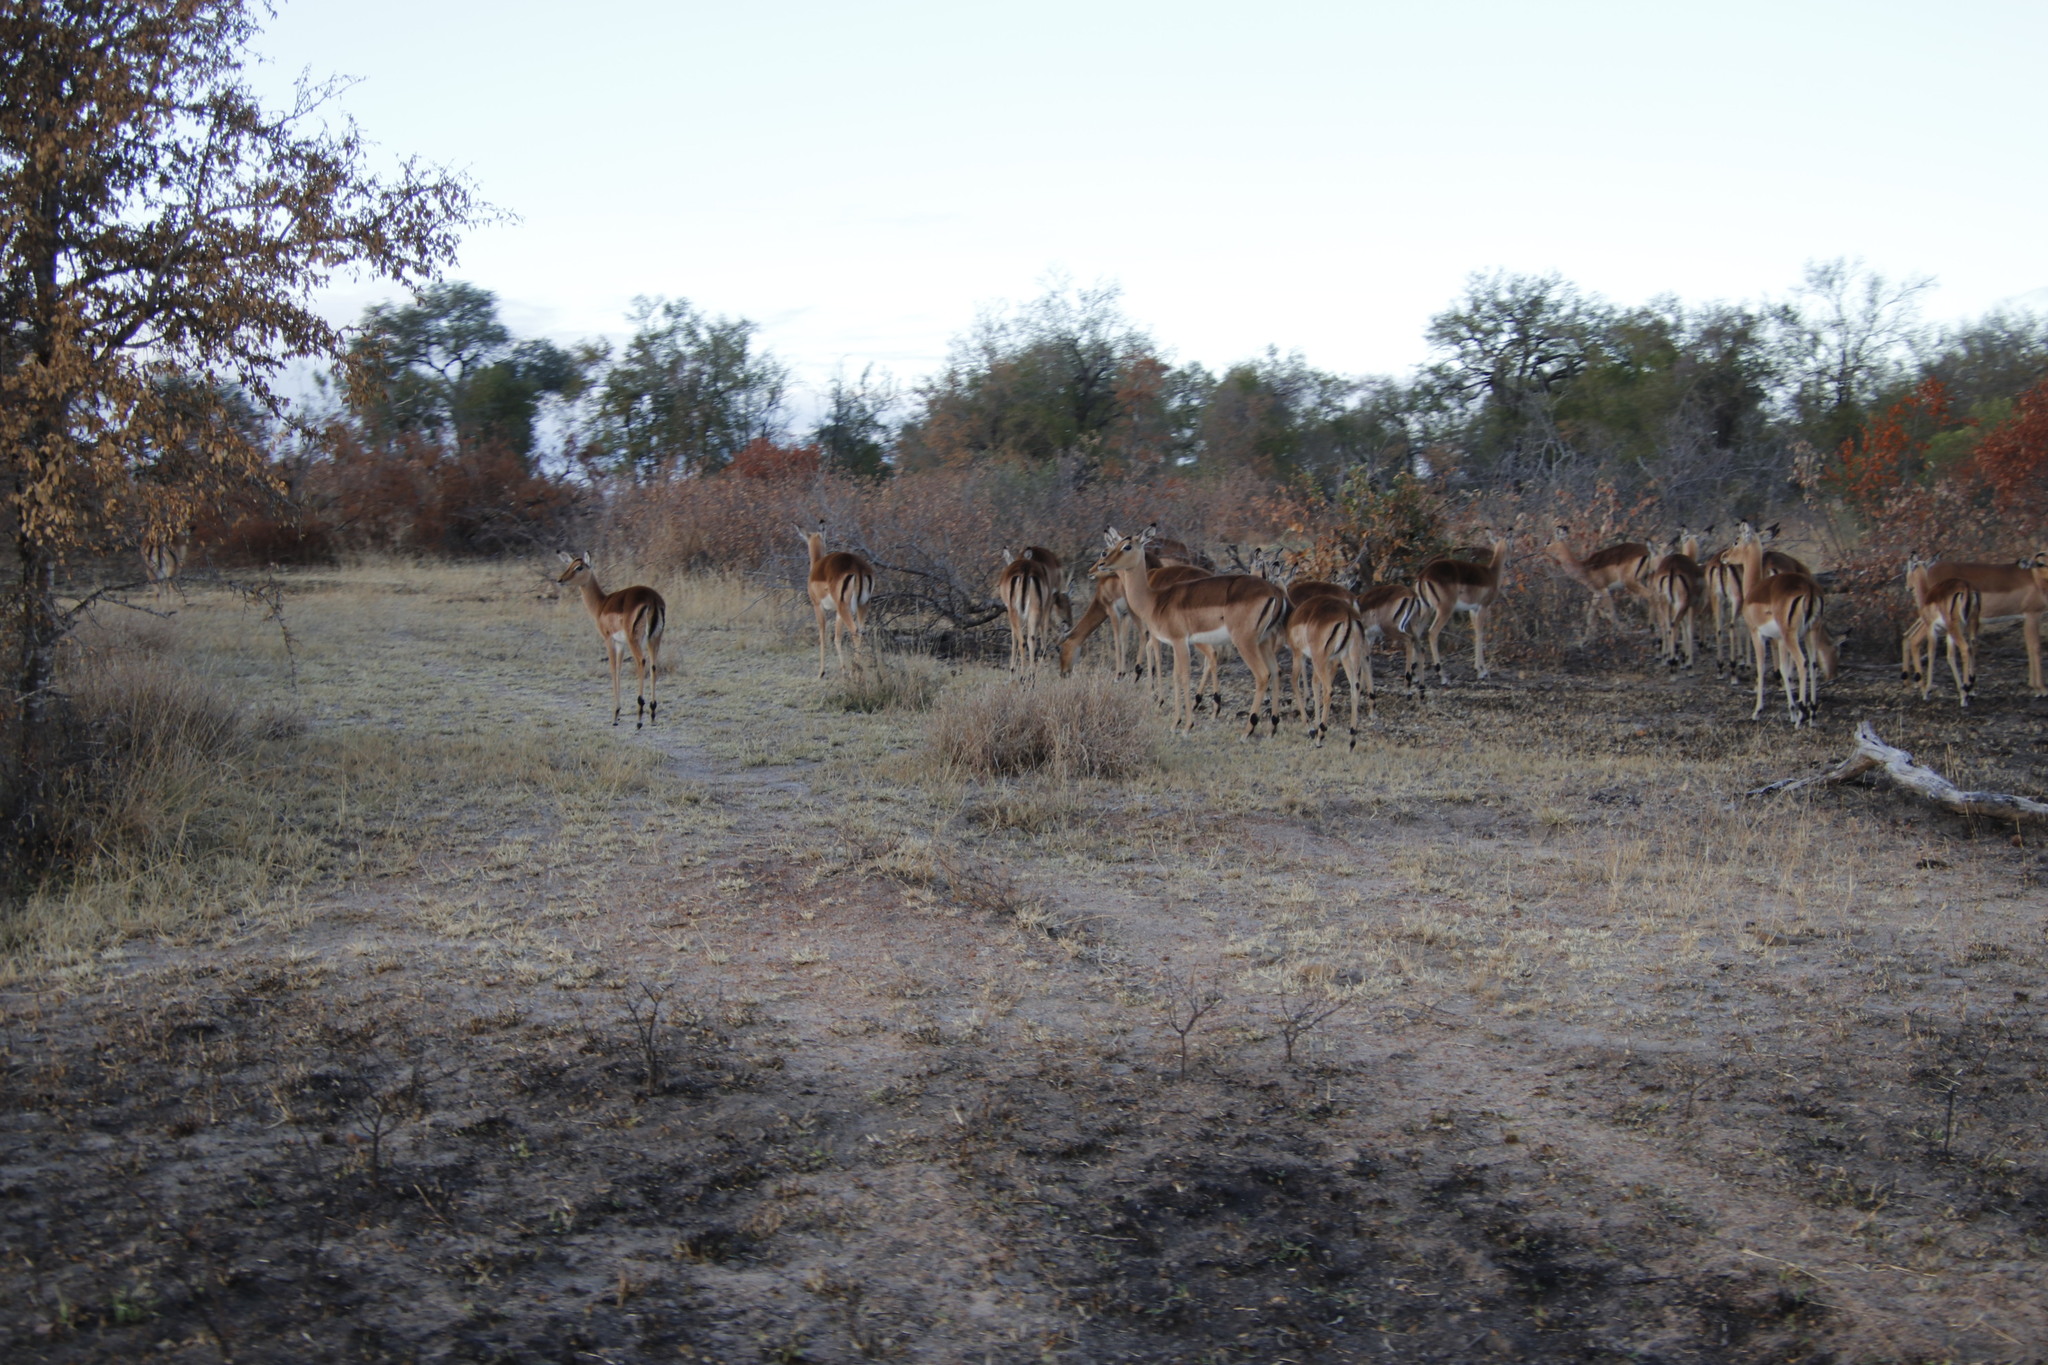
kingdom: Animalia
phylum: Chordata
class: Mammalia
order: Artiodactyla
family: Bovidae
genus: Aepyceros
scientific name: Aepyceros melampus
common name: Impala
